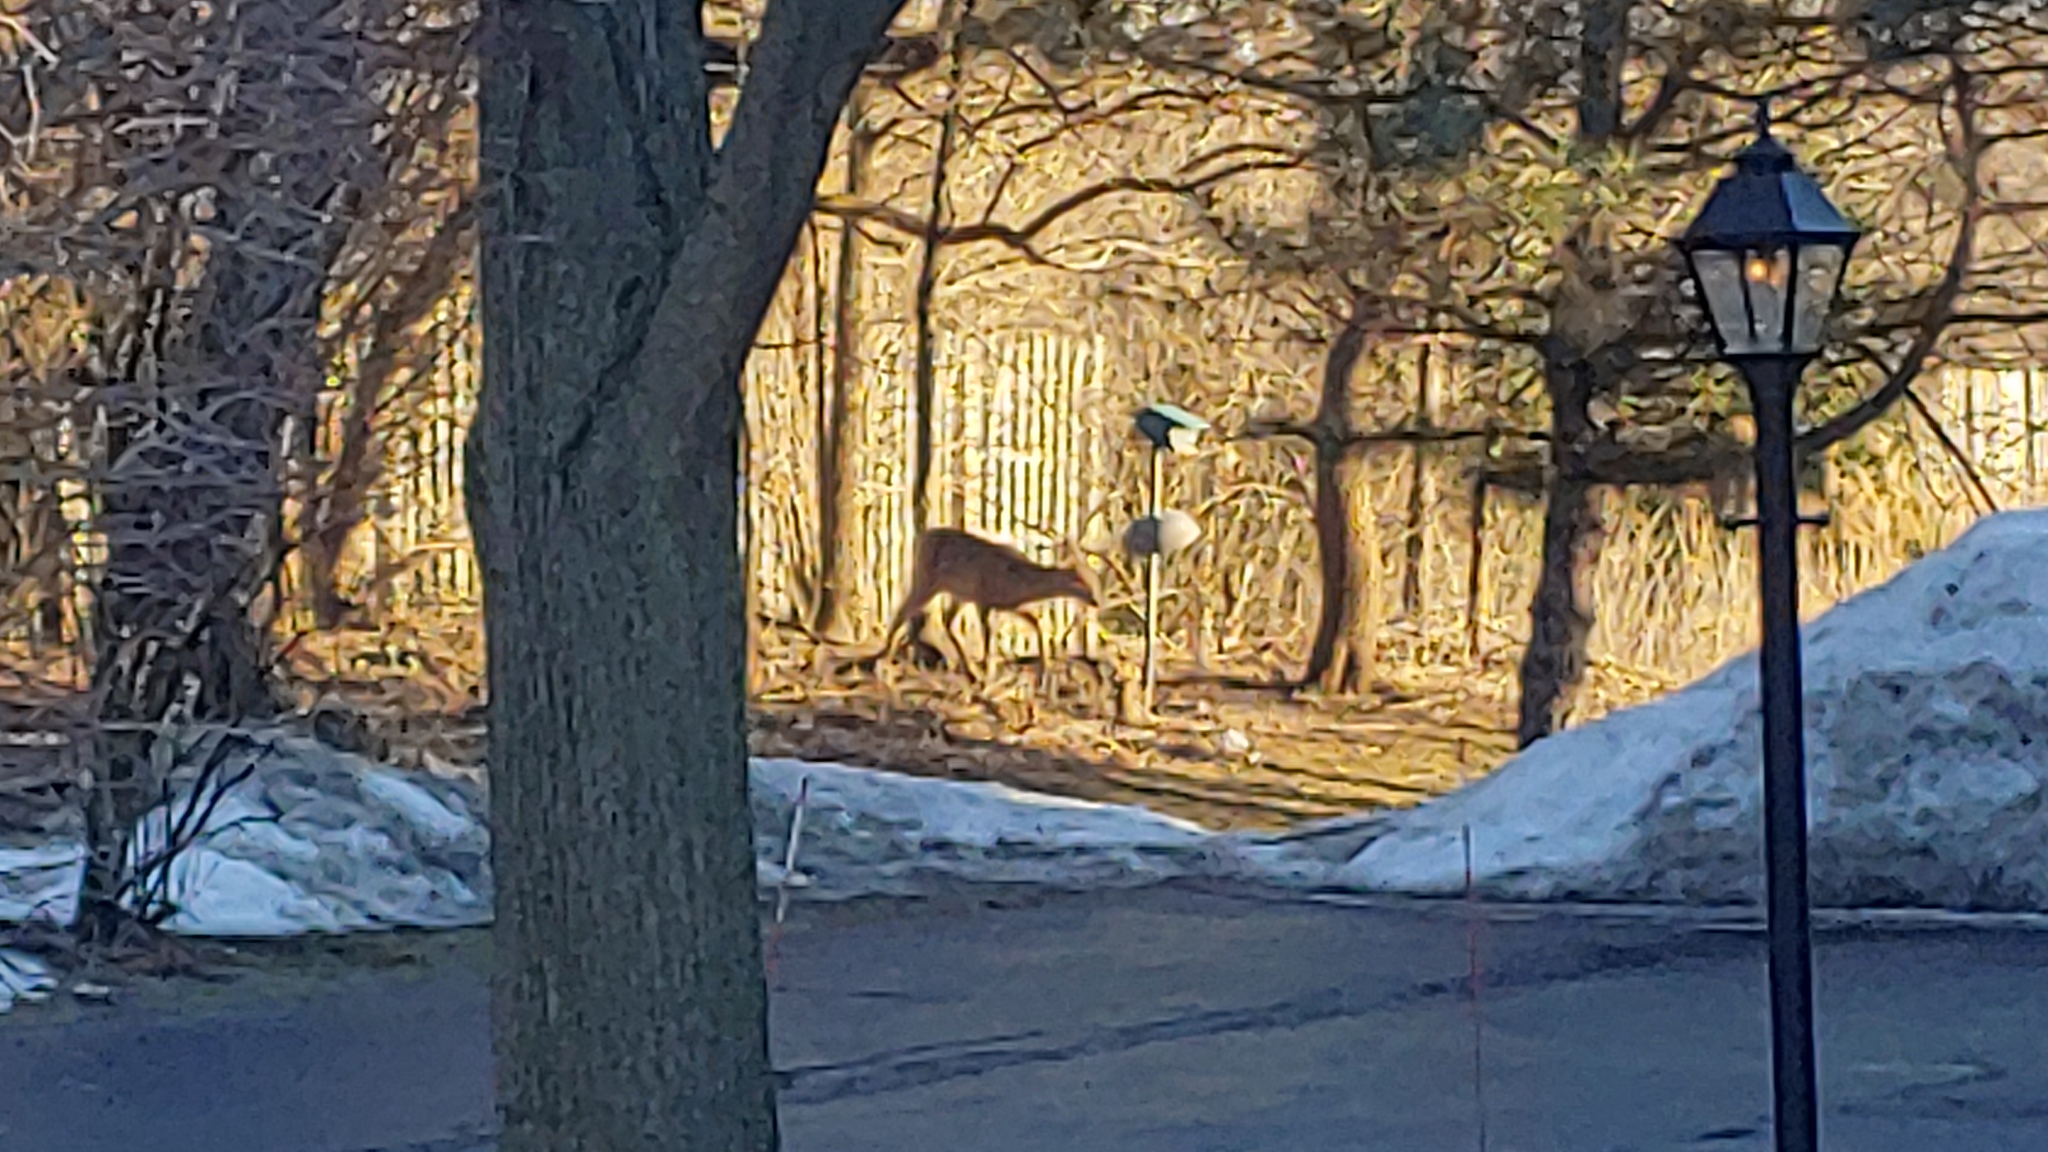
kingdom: Animalia
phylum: Chordata
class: Mammalia
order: Artiodactyla
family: Cervidae
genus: Odocoileus
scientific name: Odocoileus virginianus
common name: White-tailed deer
